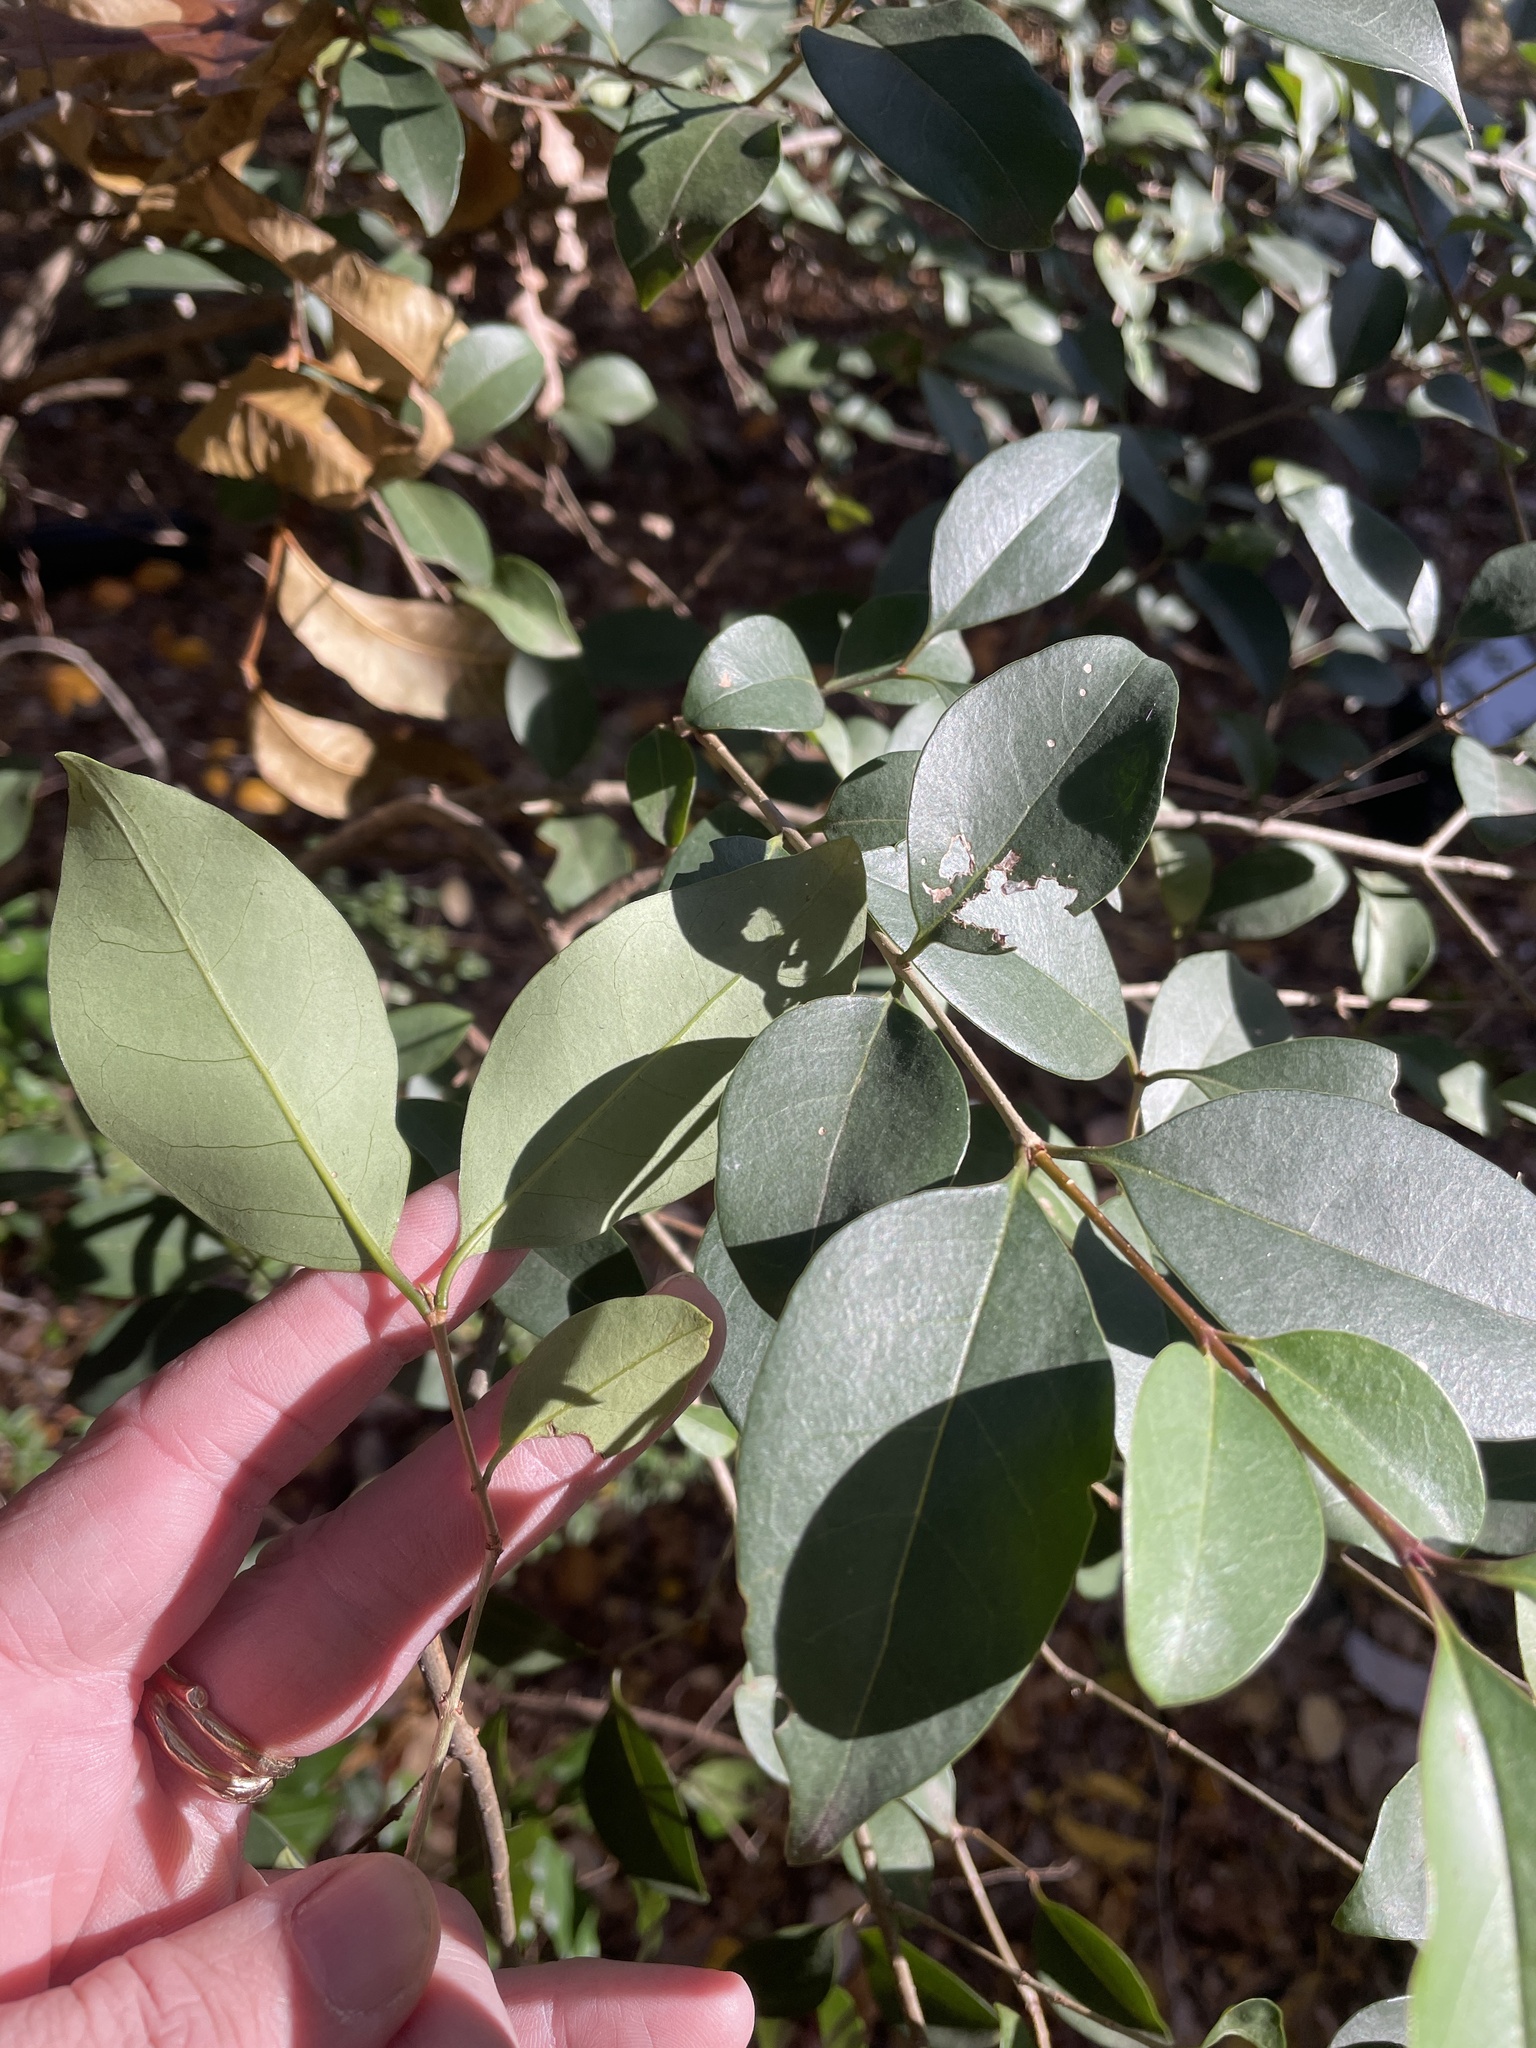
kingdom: Plantae
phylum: Tracheophyta
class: Magnoliopsida
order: Lamiales
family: Oleaceae
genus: Ligustrum
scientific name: Ligustrum lucidum
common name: Glossy privet
